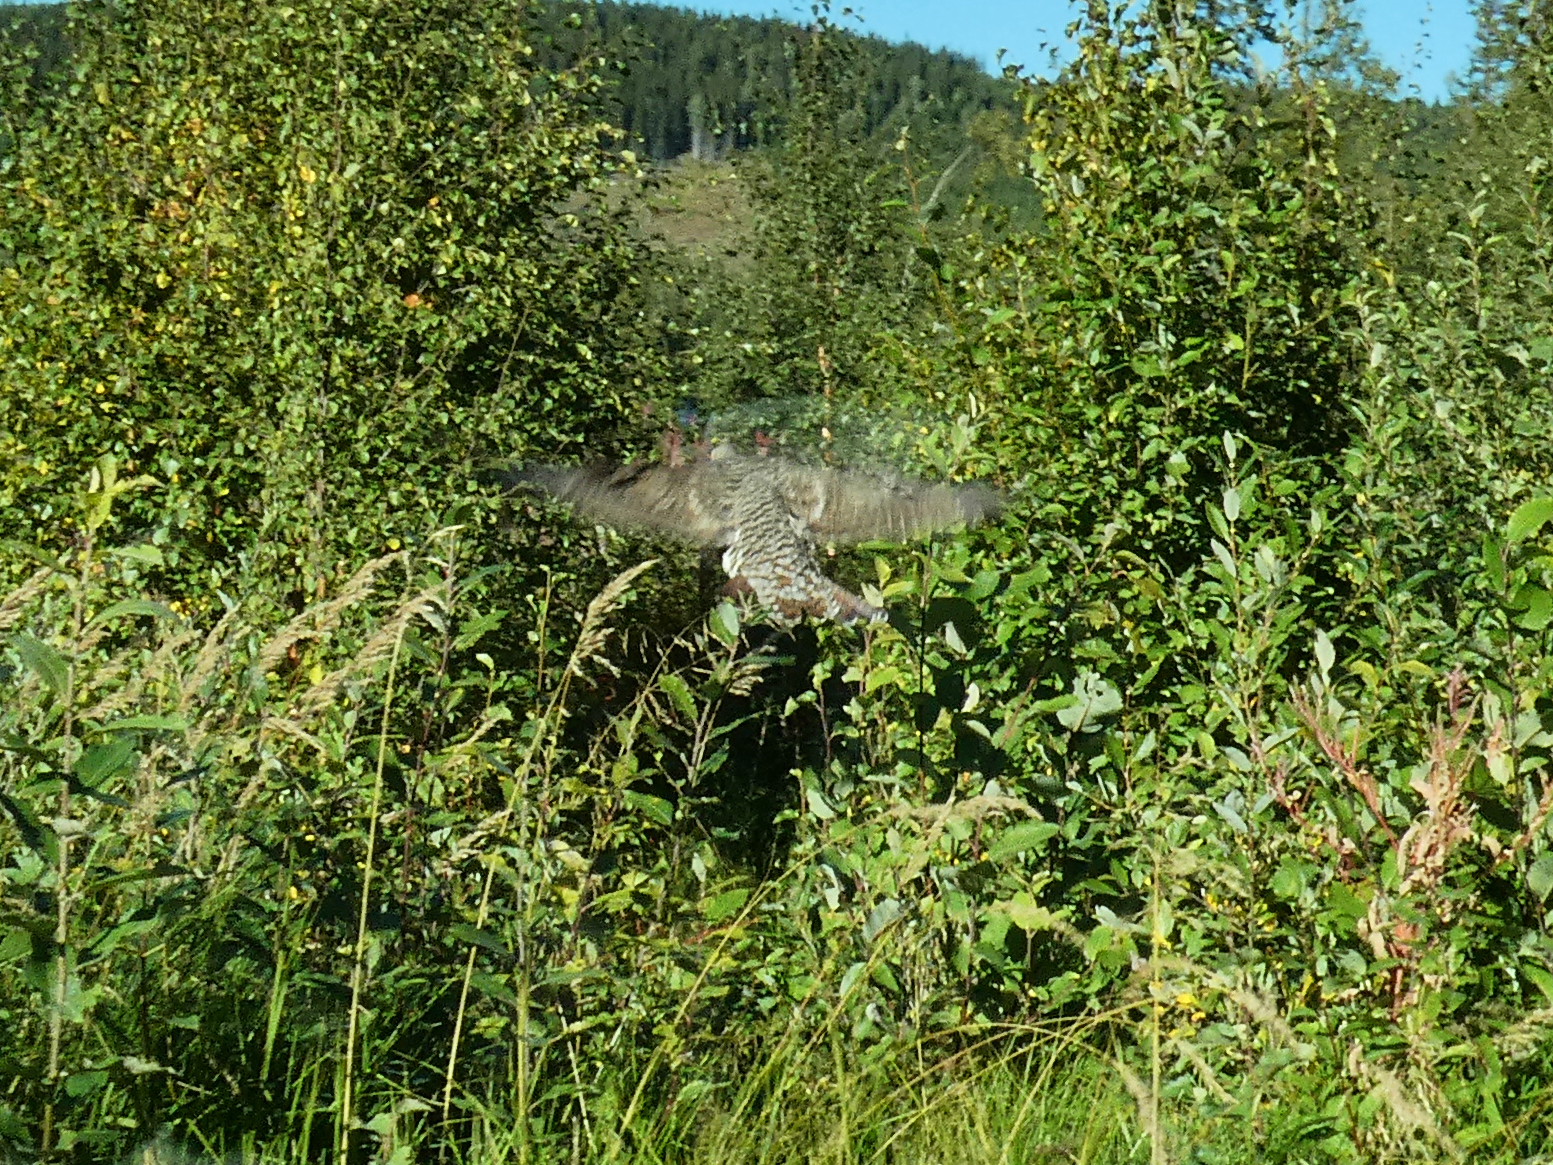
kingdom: Animalia
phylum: Chordata
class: Aves
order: Galliformes
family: Phasianidae
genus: Tetrao
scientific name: Tetrao urogallus
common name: Western capercaillie
